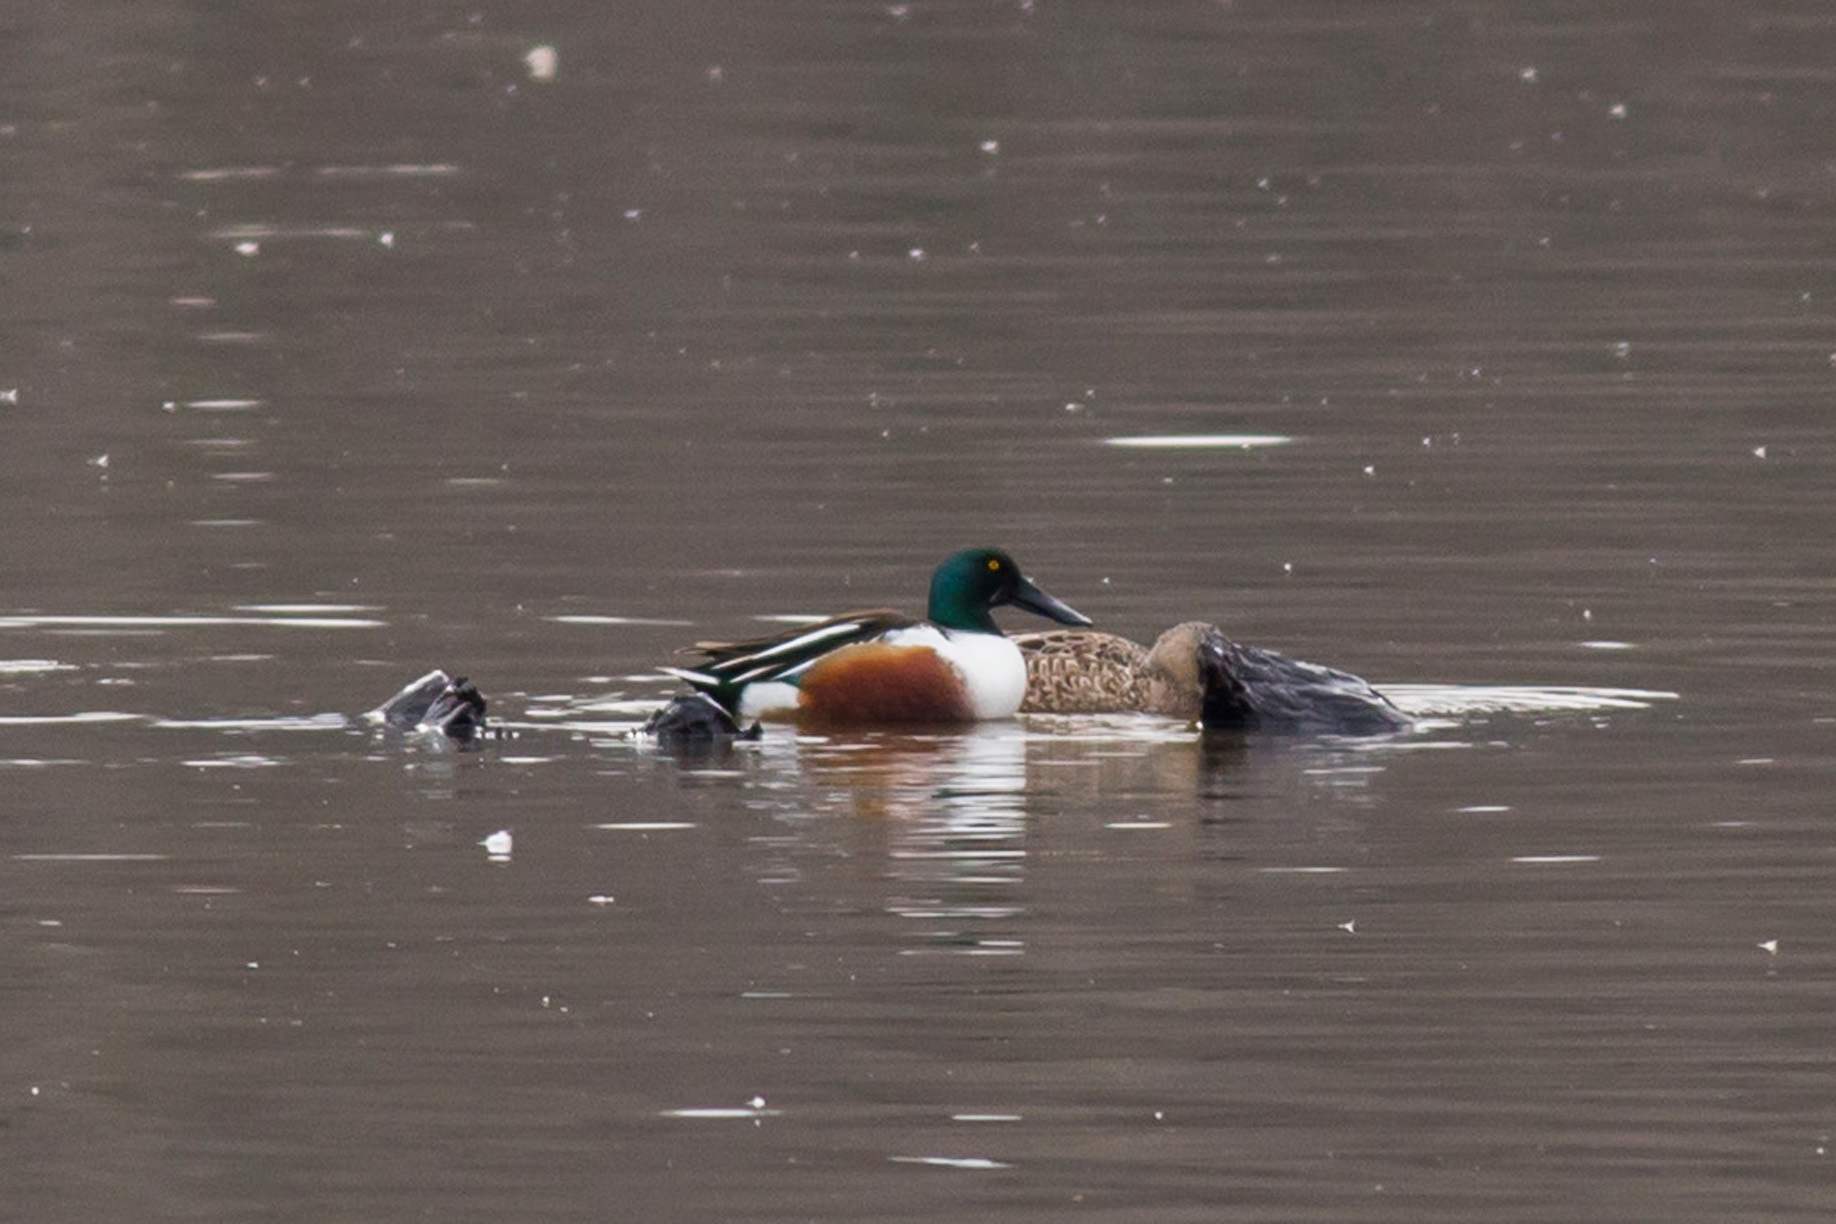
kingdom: Animalia
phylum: Chordata
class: Aves
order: Anseriformes
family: Anatidae
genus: Spatula
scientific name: Spatula clypeata
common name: Northern shoveler
